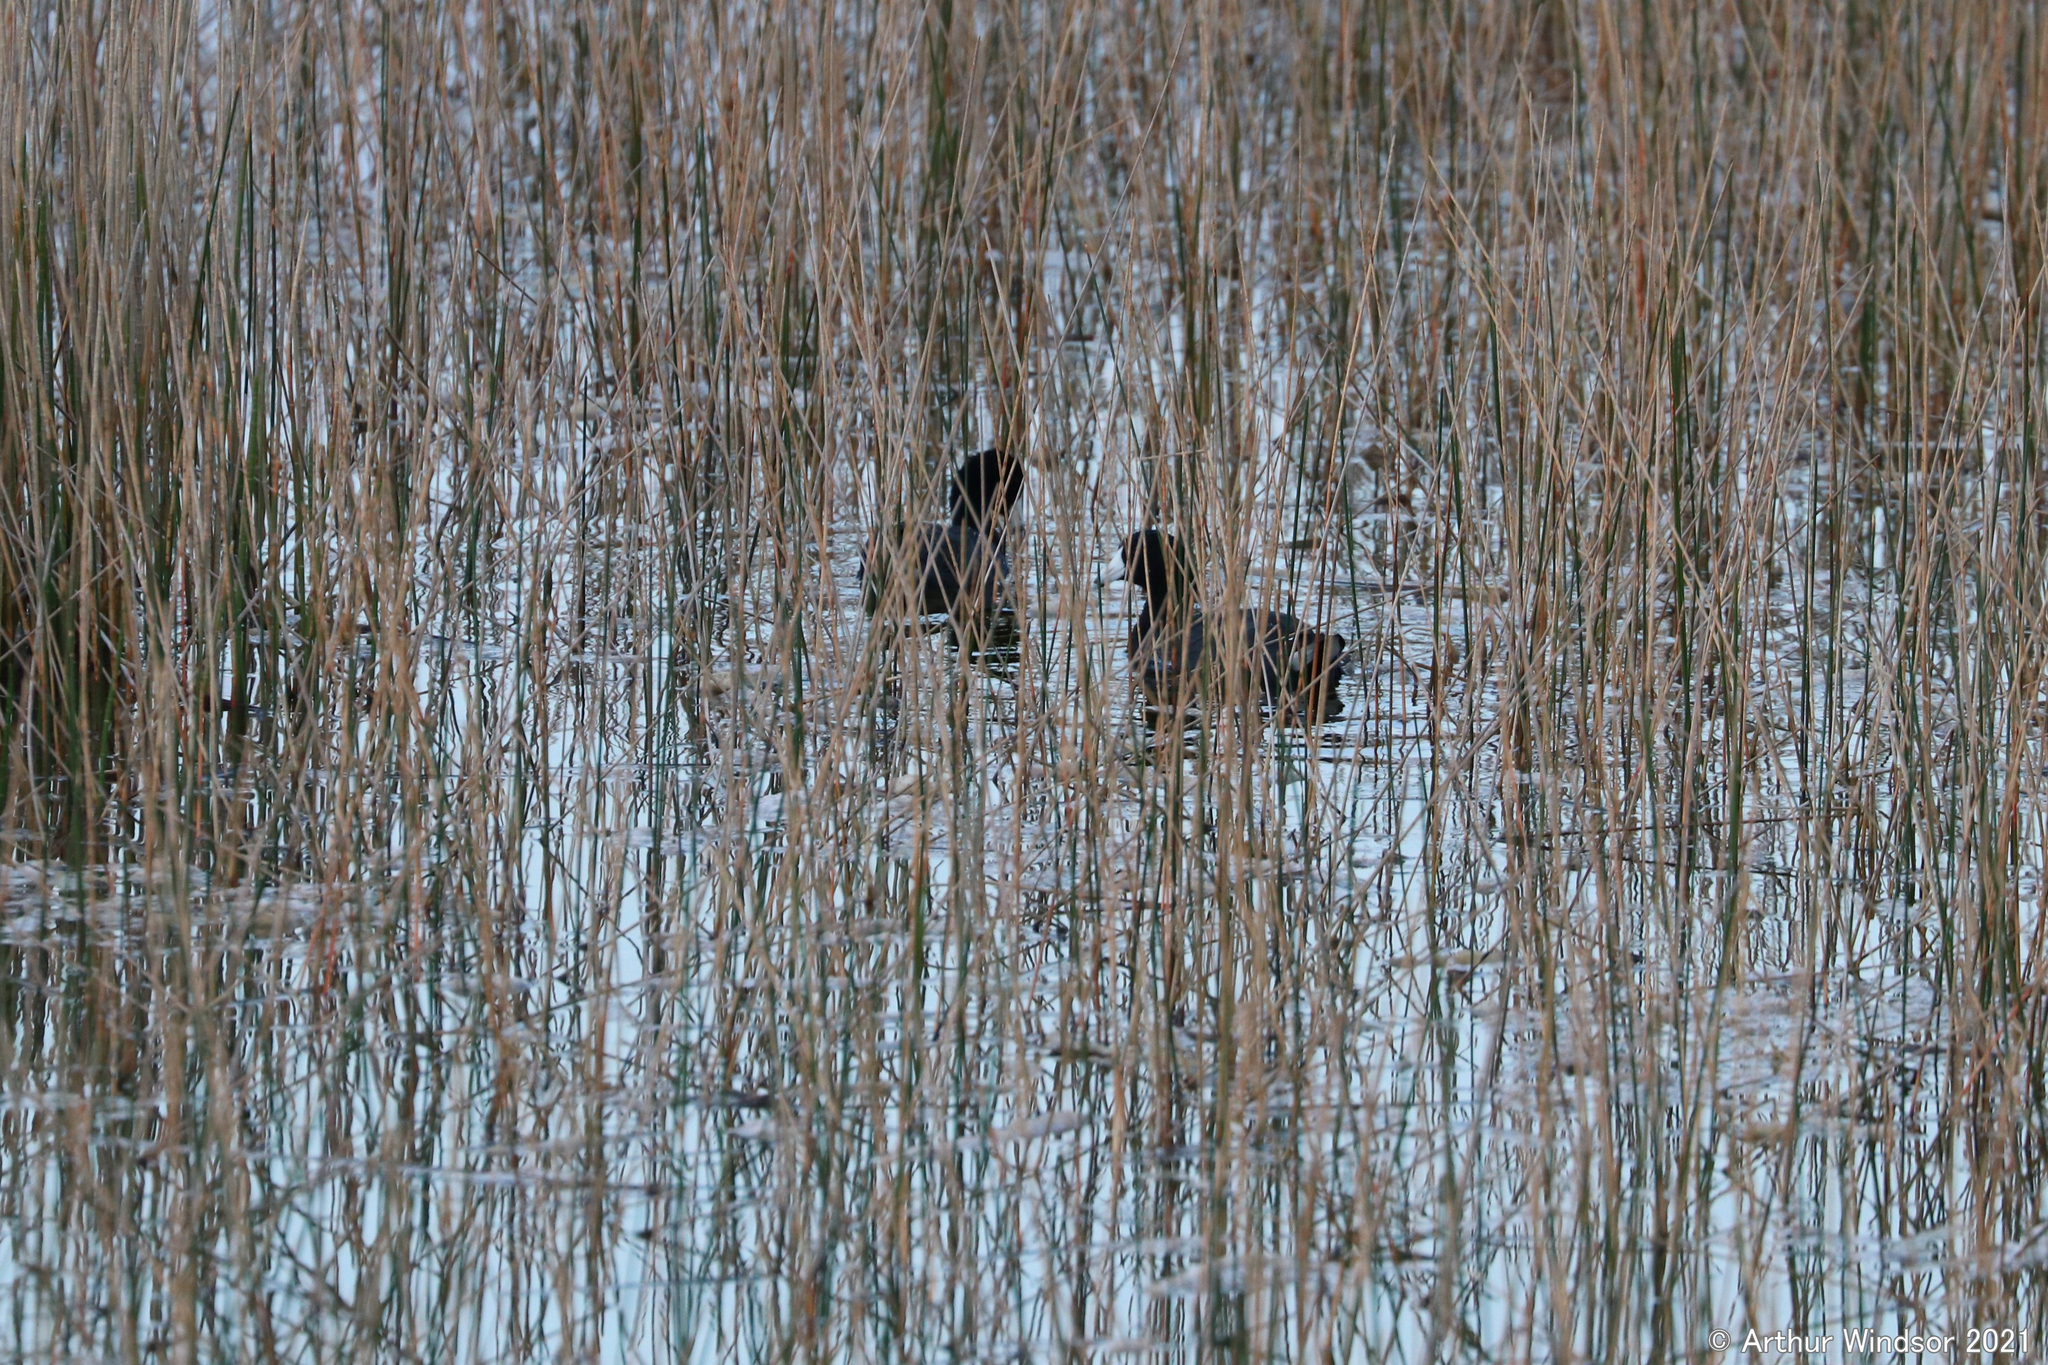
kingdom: Animalia
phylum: Chordata
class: Aves
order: Gruiformes
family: Rallidae
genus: Fulica
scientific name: Fulica americana
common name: American coot
